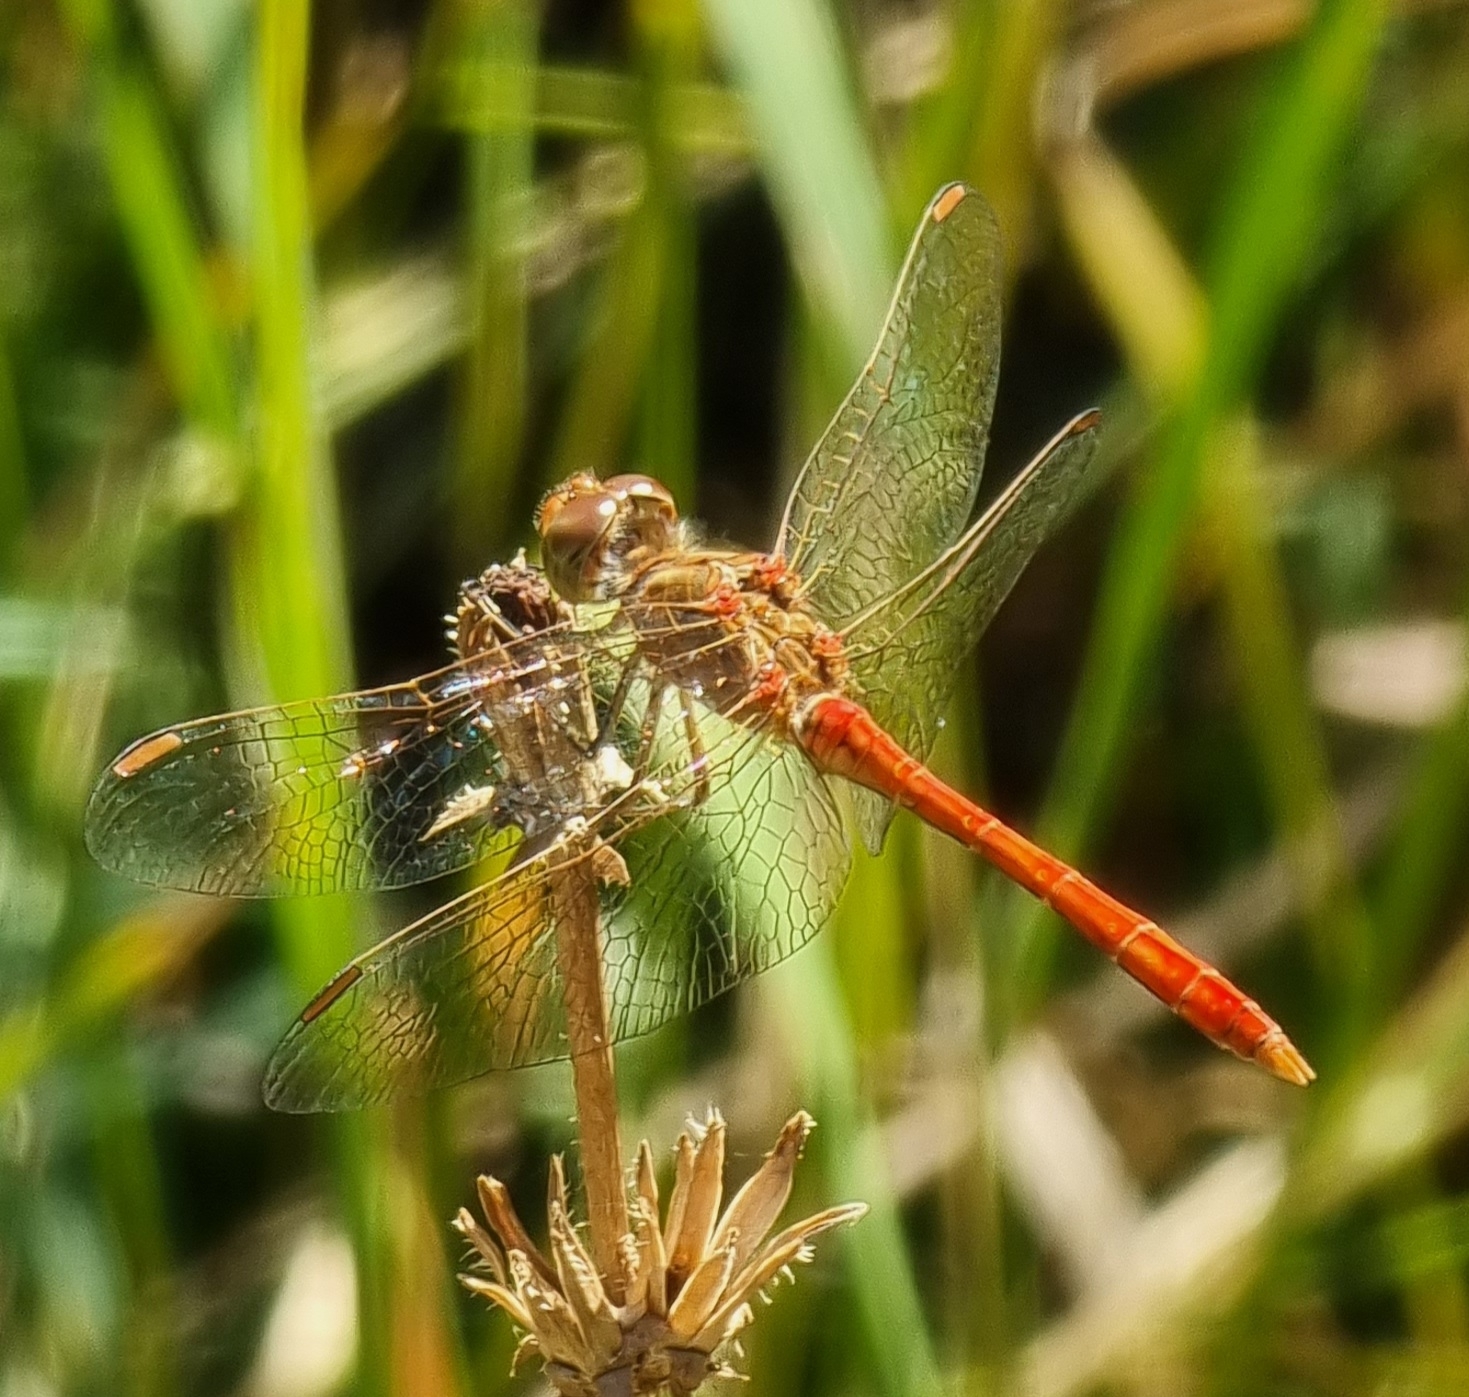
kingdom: Animalia
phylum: Arthropoda
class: Insecta
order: Odonata
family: Libellulidae
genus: Sympetrum
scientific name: Sympetrum meridionale
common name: Southern darter
